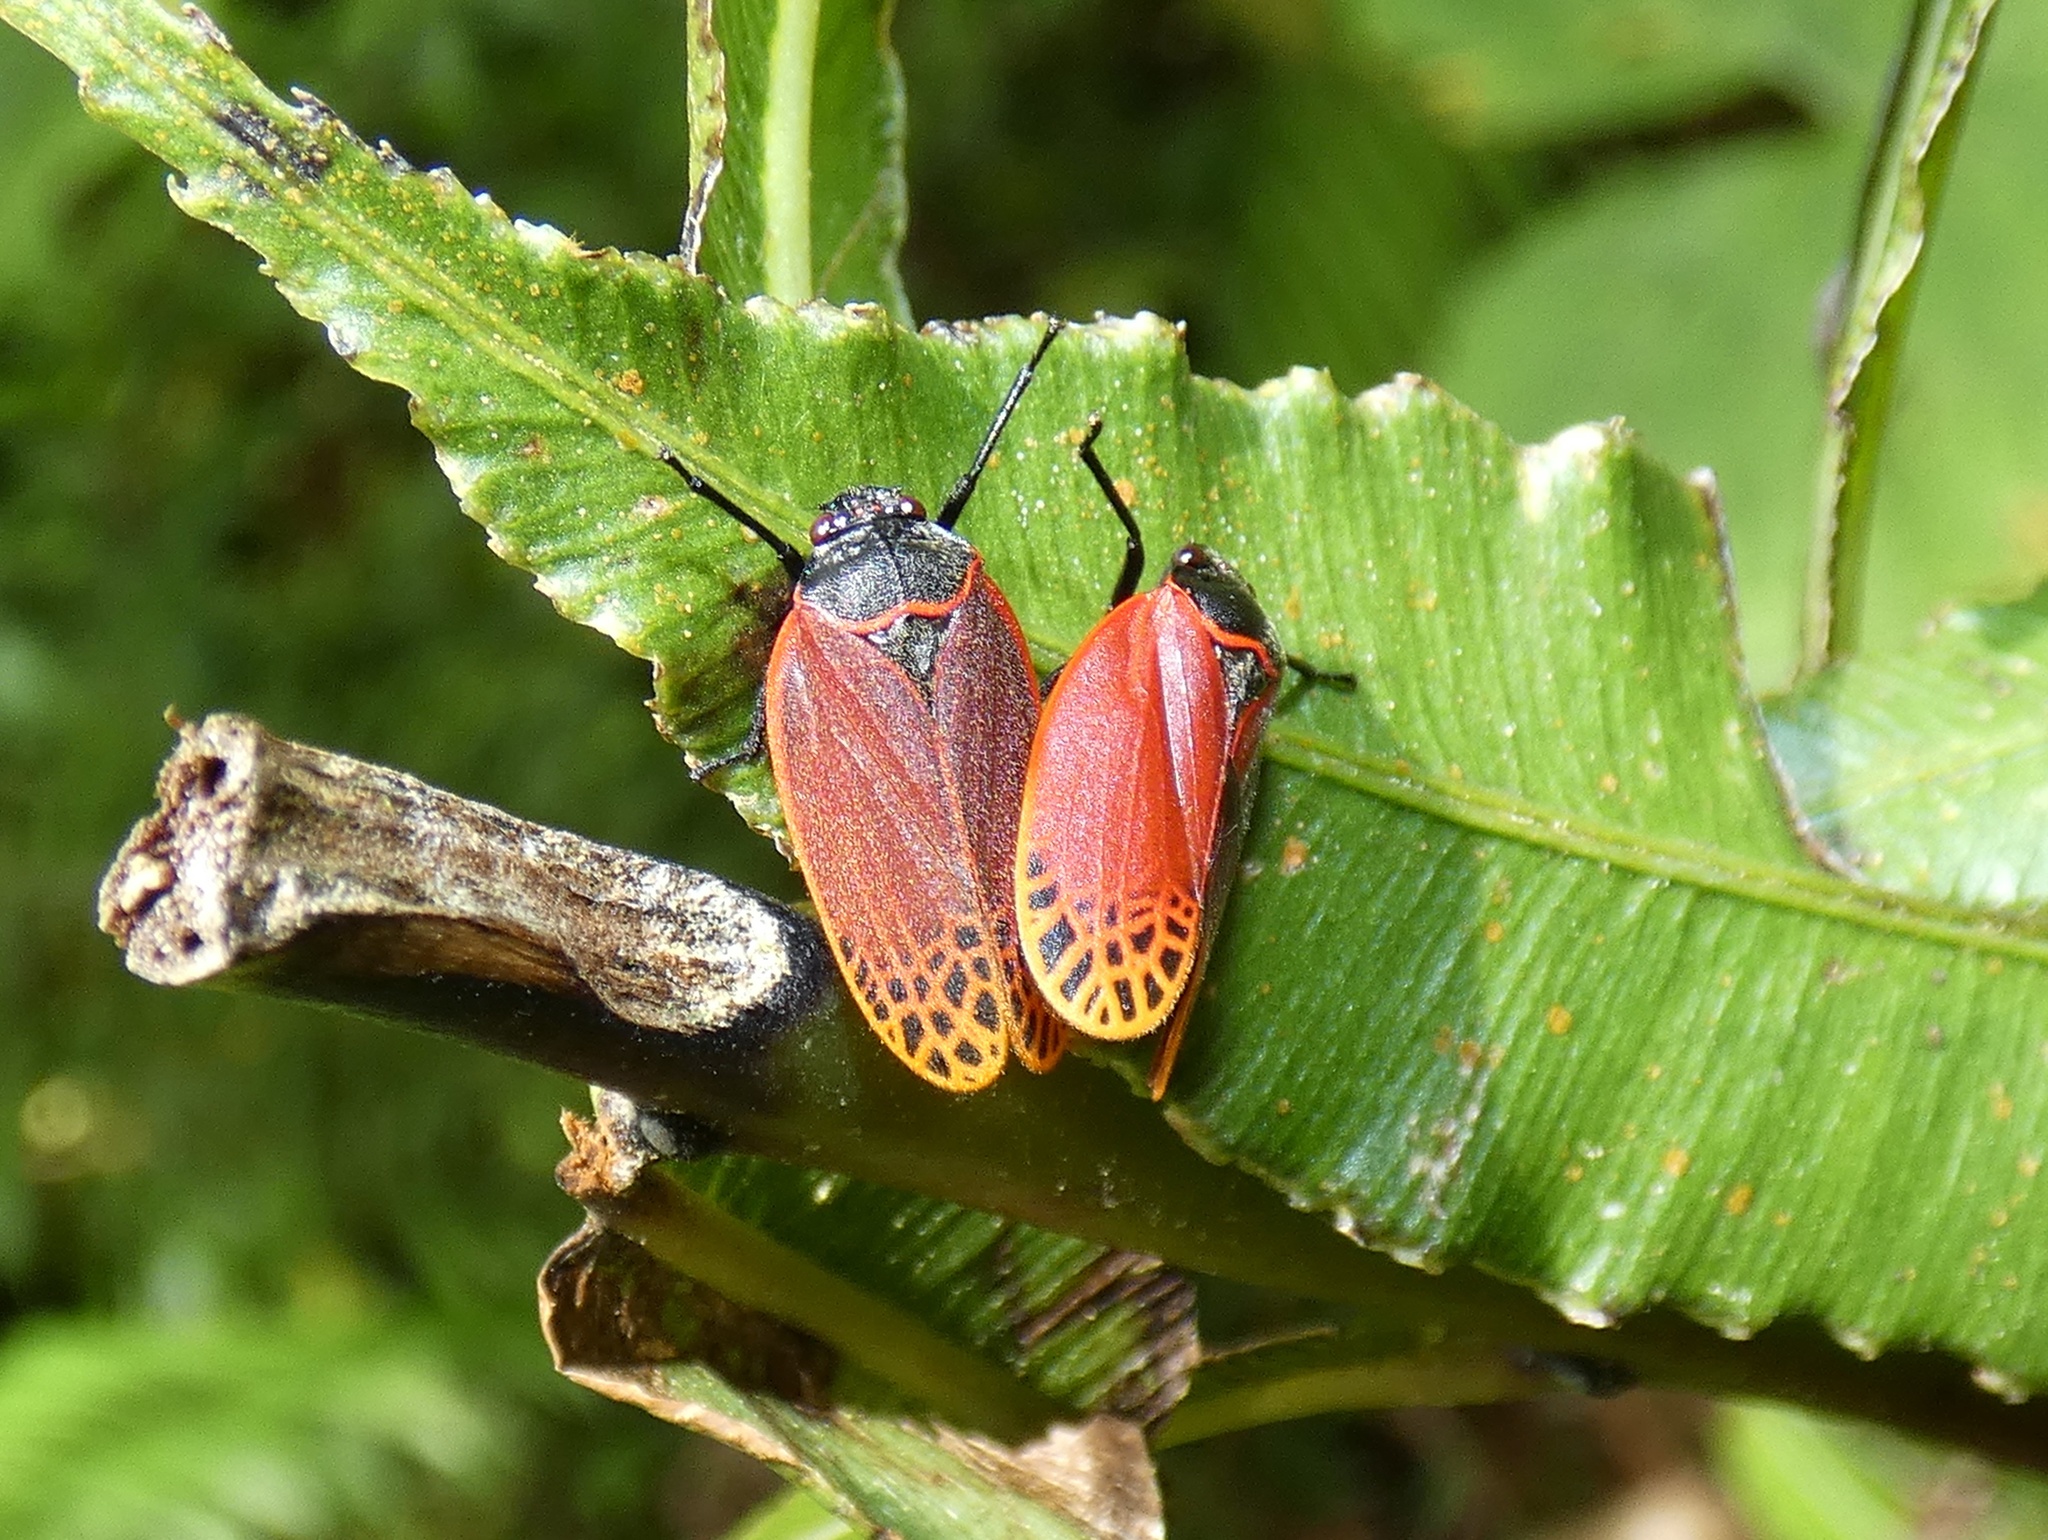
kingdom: Animalia
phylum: Arthropoda
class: Insecta
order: Hemiptera
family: Cercopidae
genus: Tomaspis
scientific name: Tomaspis biolleyi
